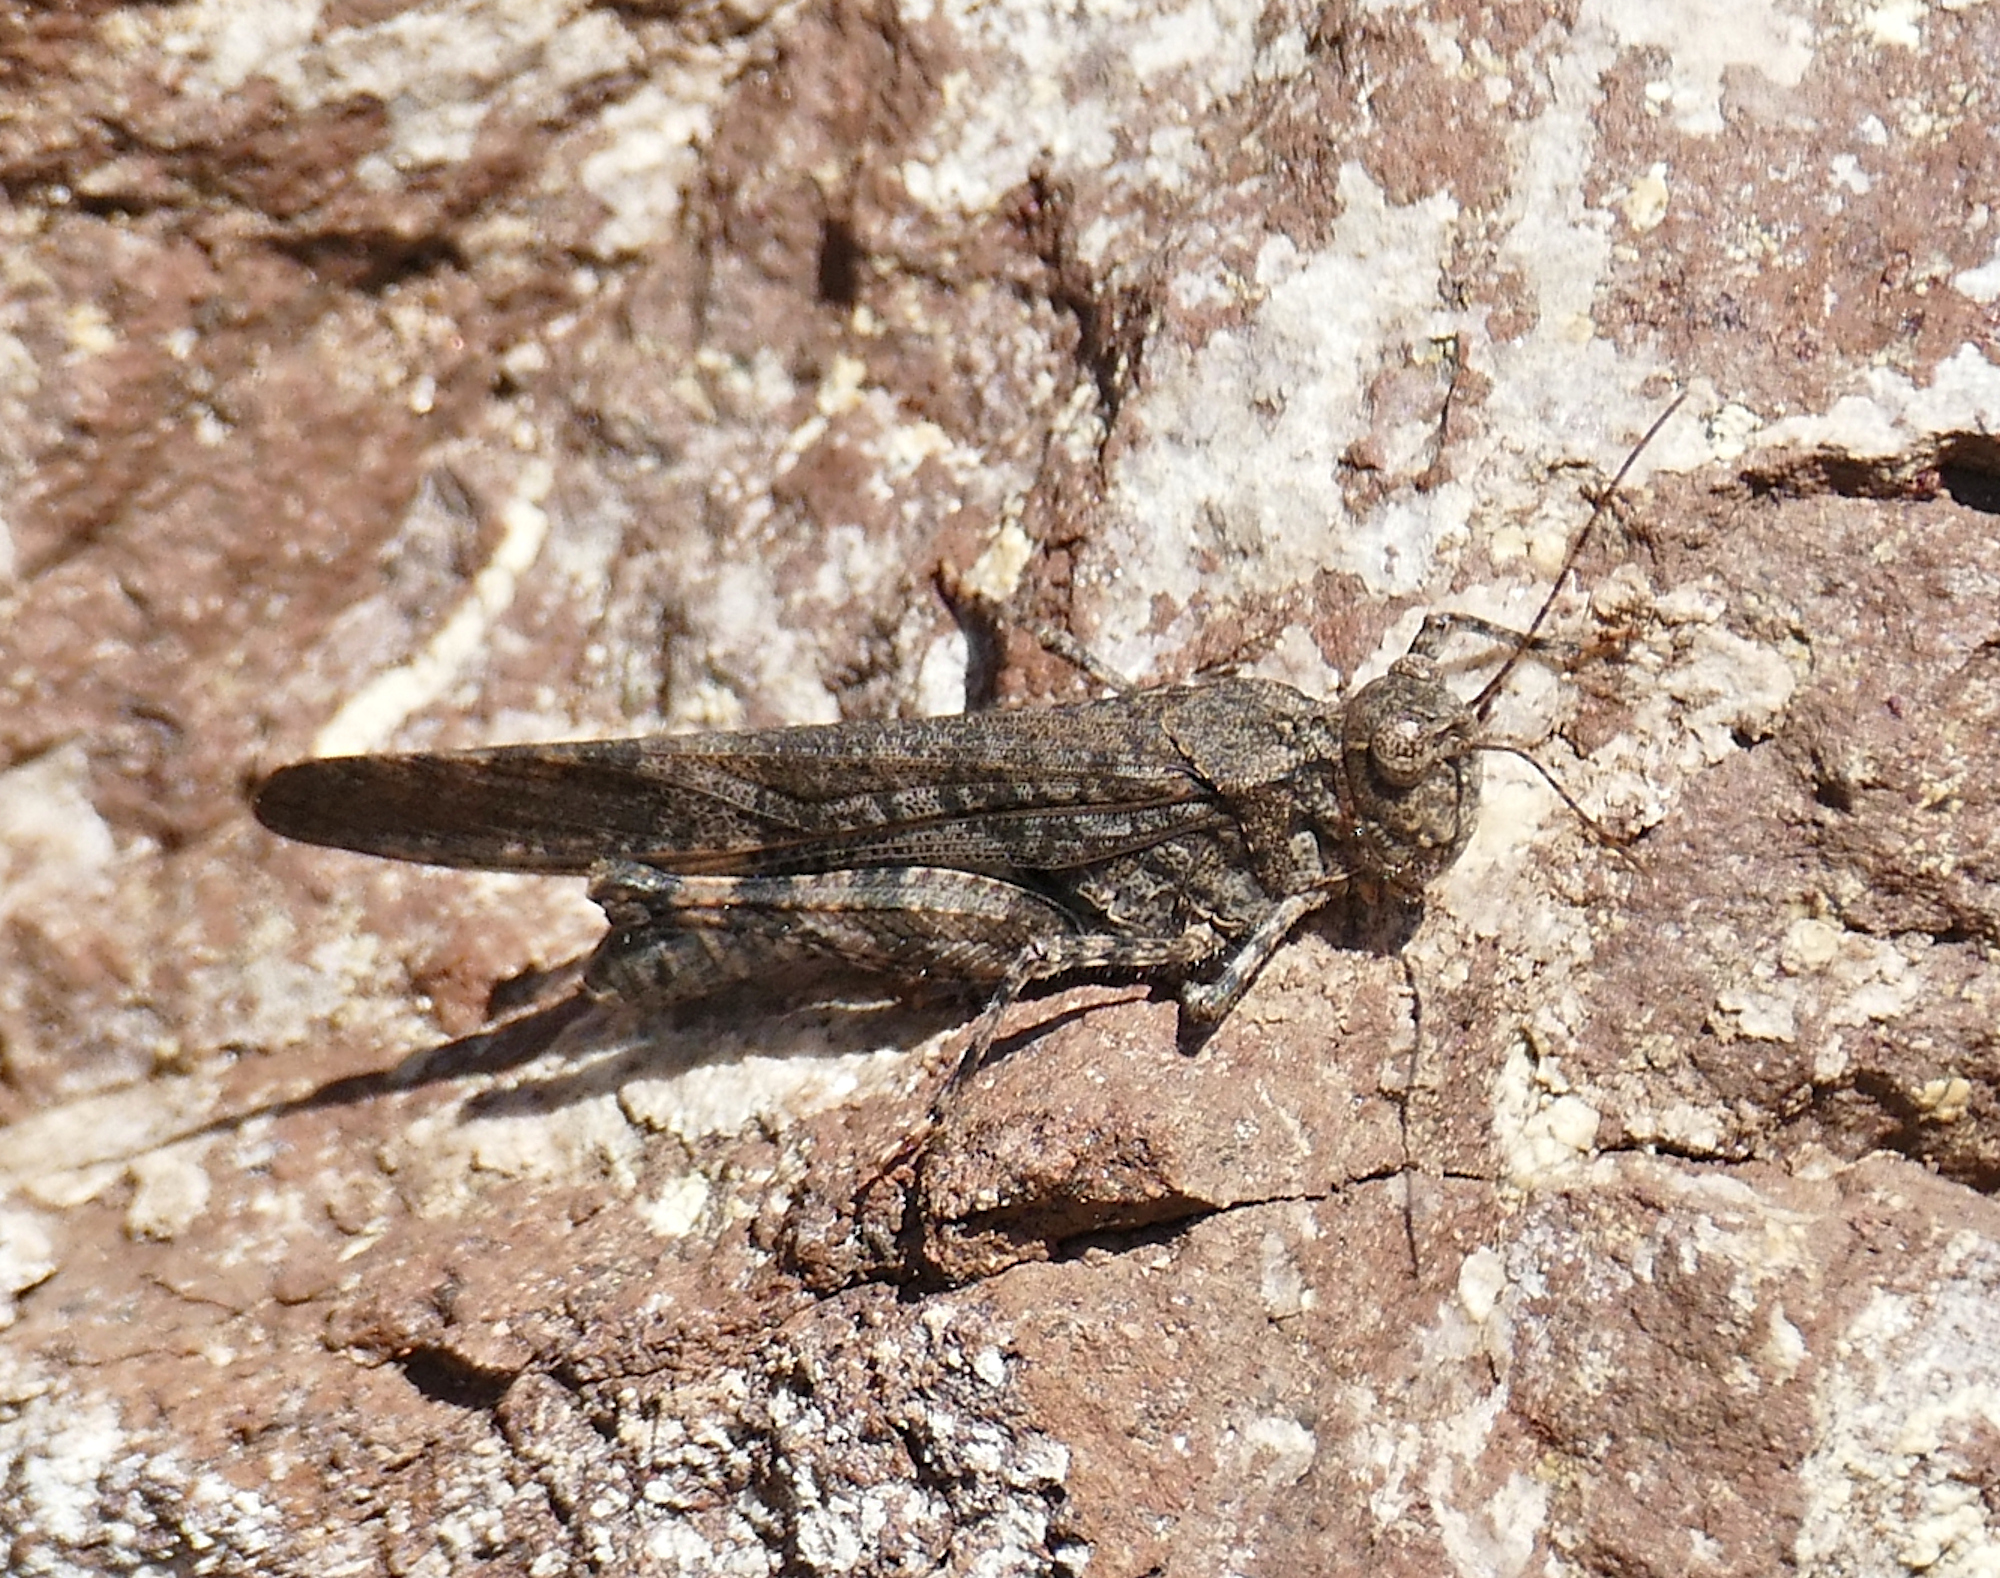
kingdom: Animalia
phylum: Arthropoda
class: Insecta
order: Orthoptera
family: Acrididae
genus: Trimerotropis
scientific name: Trimerotropis cyaneipennis
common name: Blue-winged grasshopper
